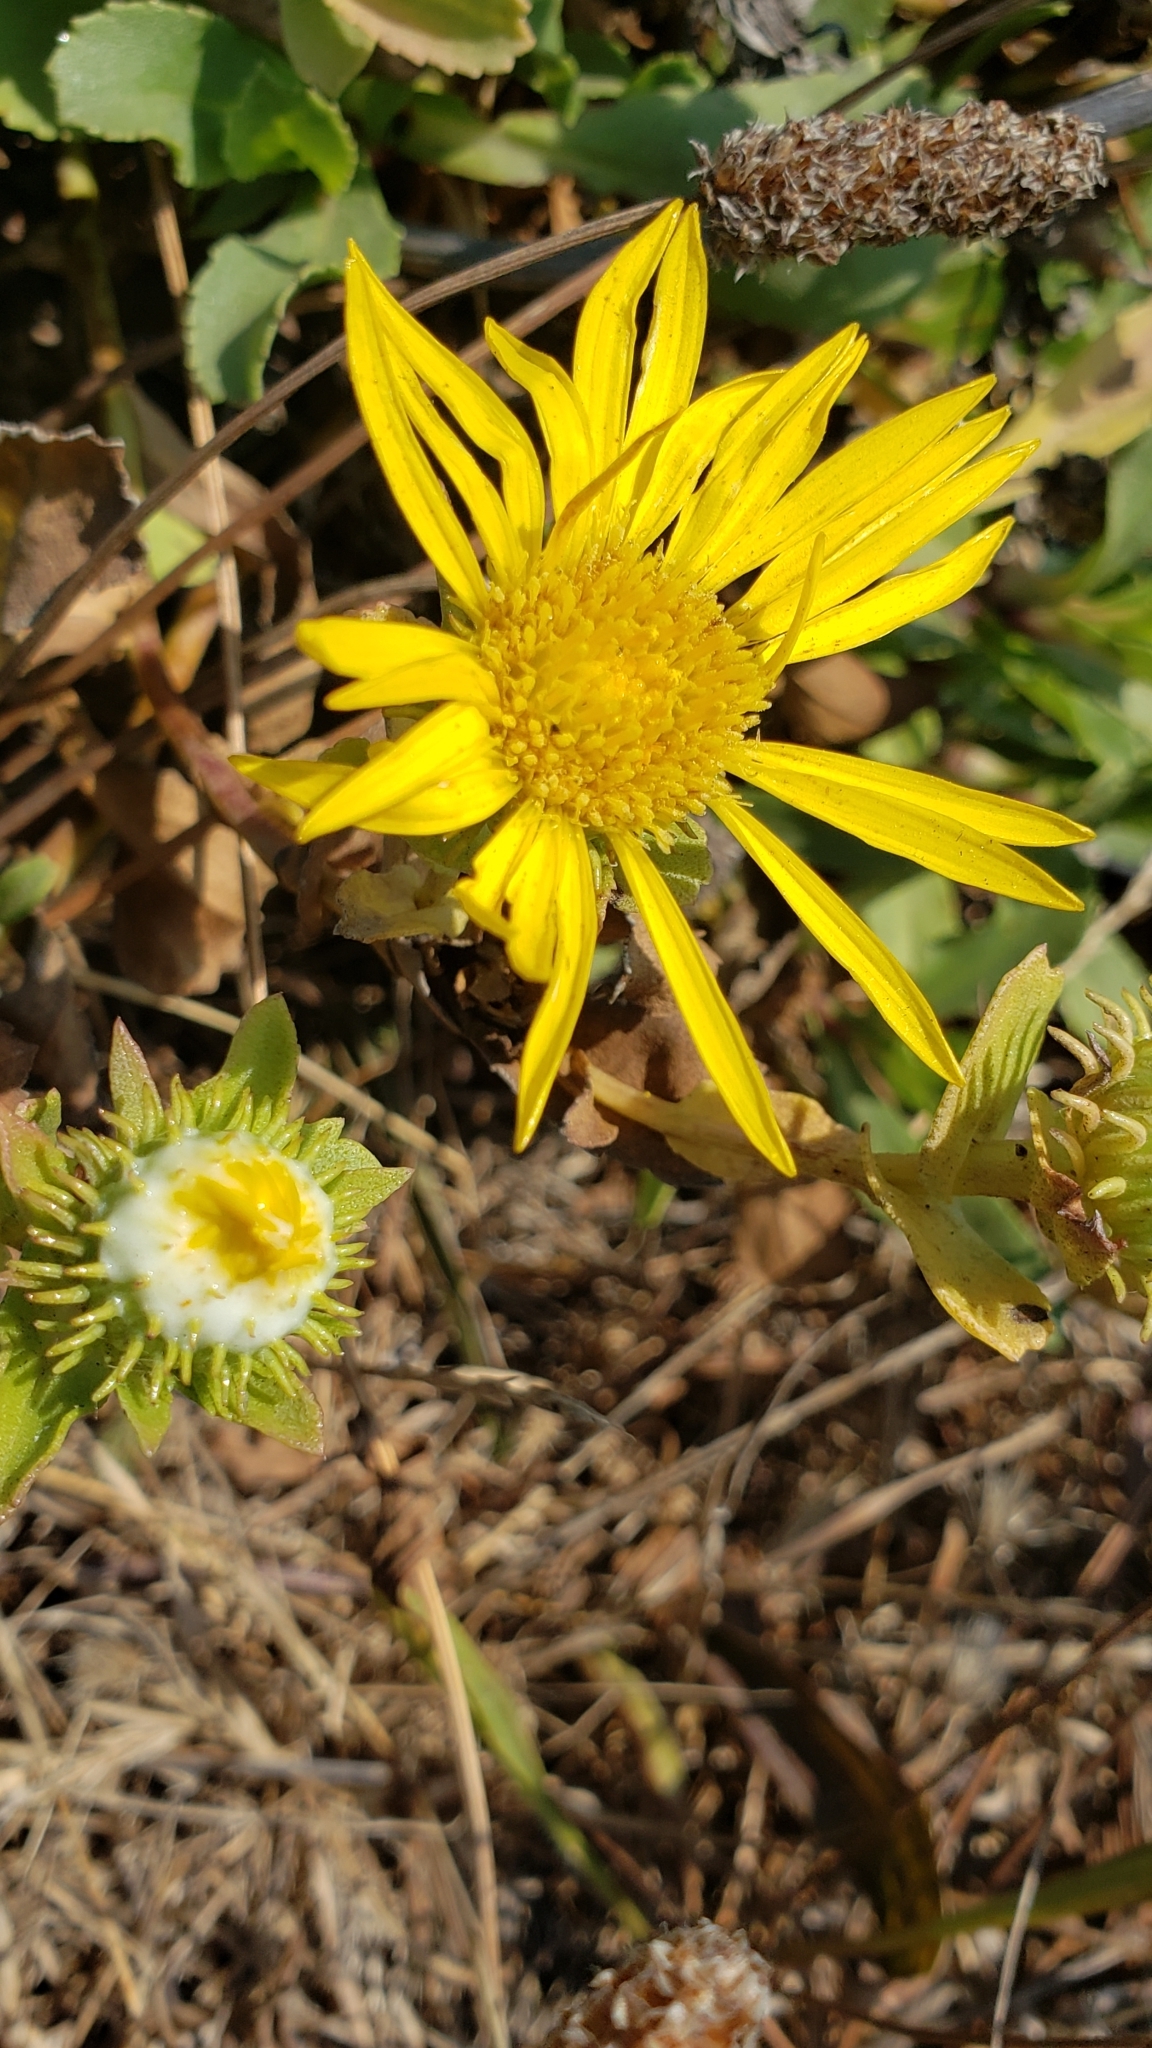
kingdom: Plantae
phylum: Tracheophyta
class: Magnoliopsida
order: Asterales
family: Asteraceae
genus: Grindelia
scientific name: Grindelia hirsutula
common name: Hairy gumweed
